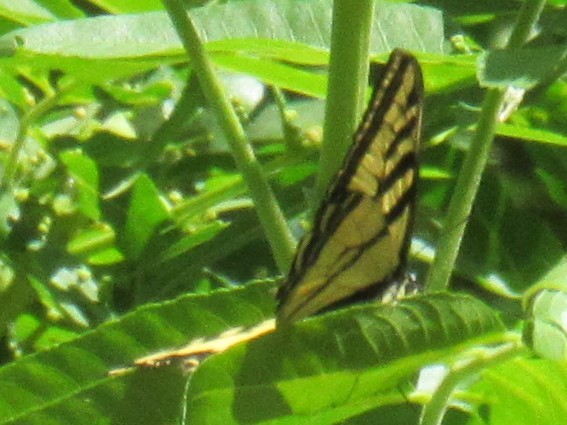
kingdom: Animalia
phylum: Arthropoda
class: Insecta
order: Lepidoptera
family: Papilionidae
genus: Papilio
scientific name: Papilio rutulus
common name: Western tiger swallowtail
